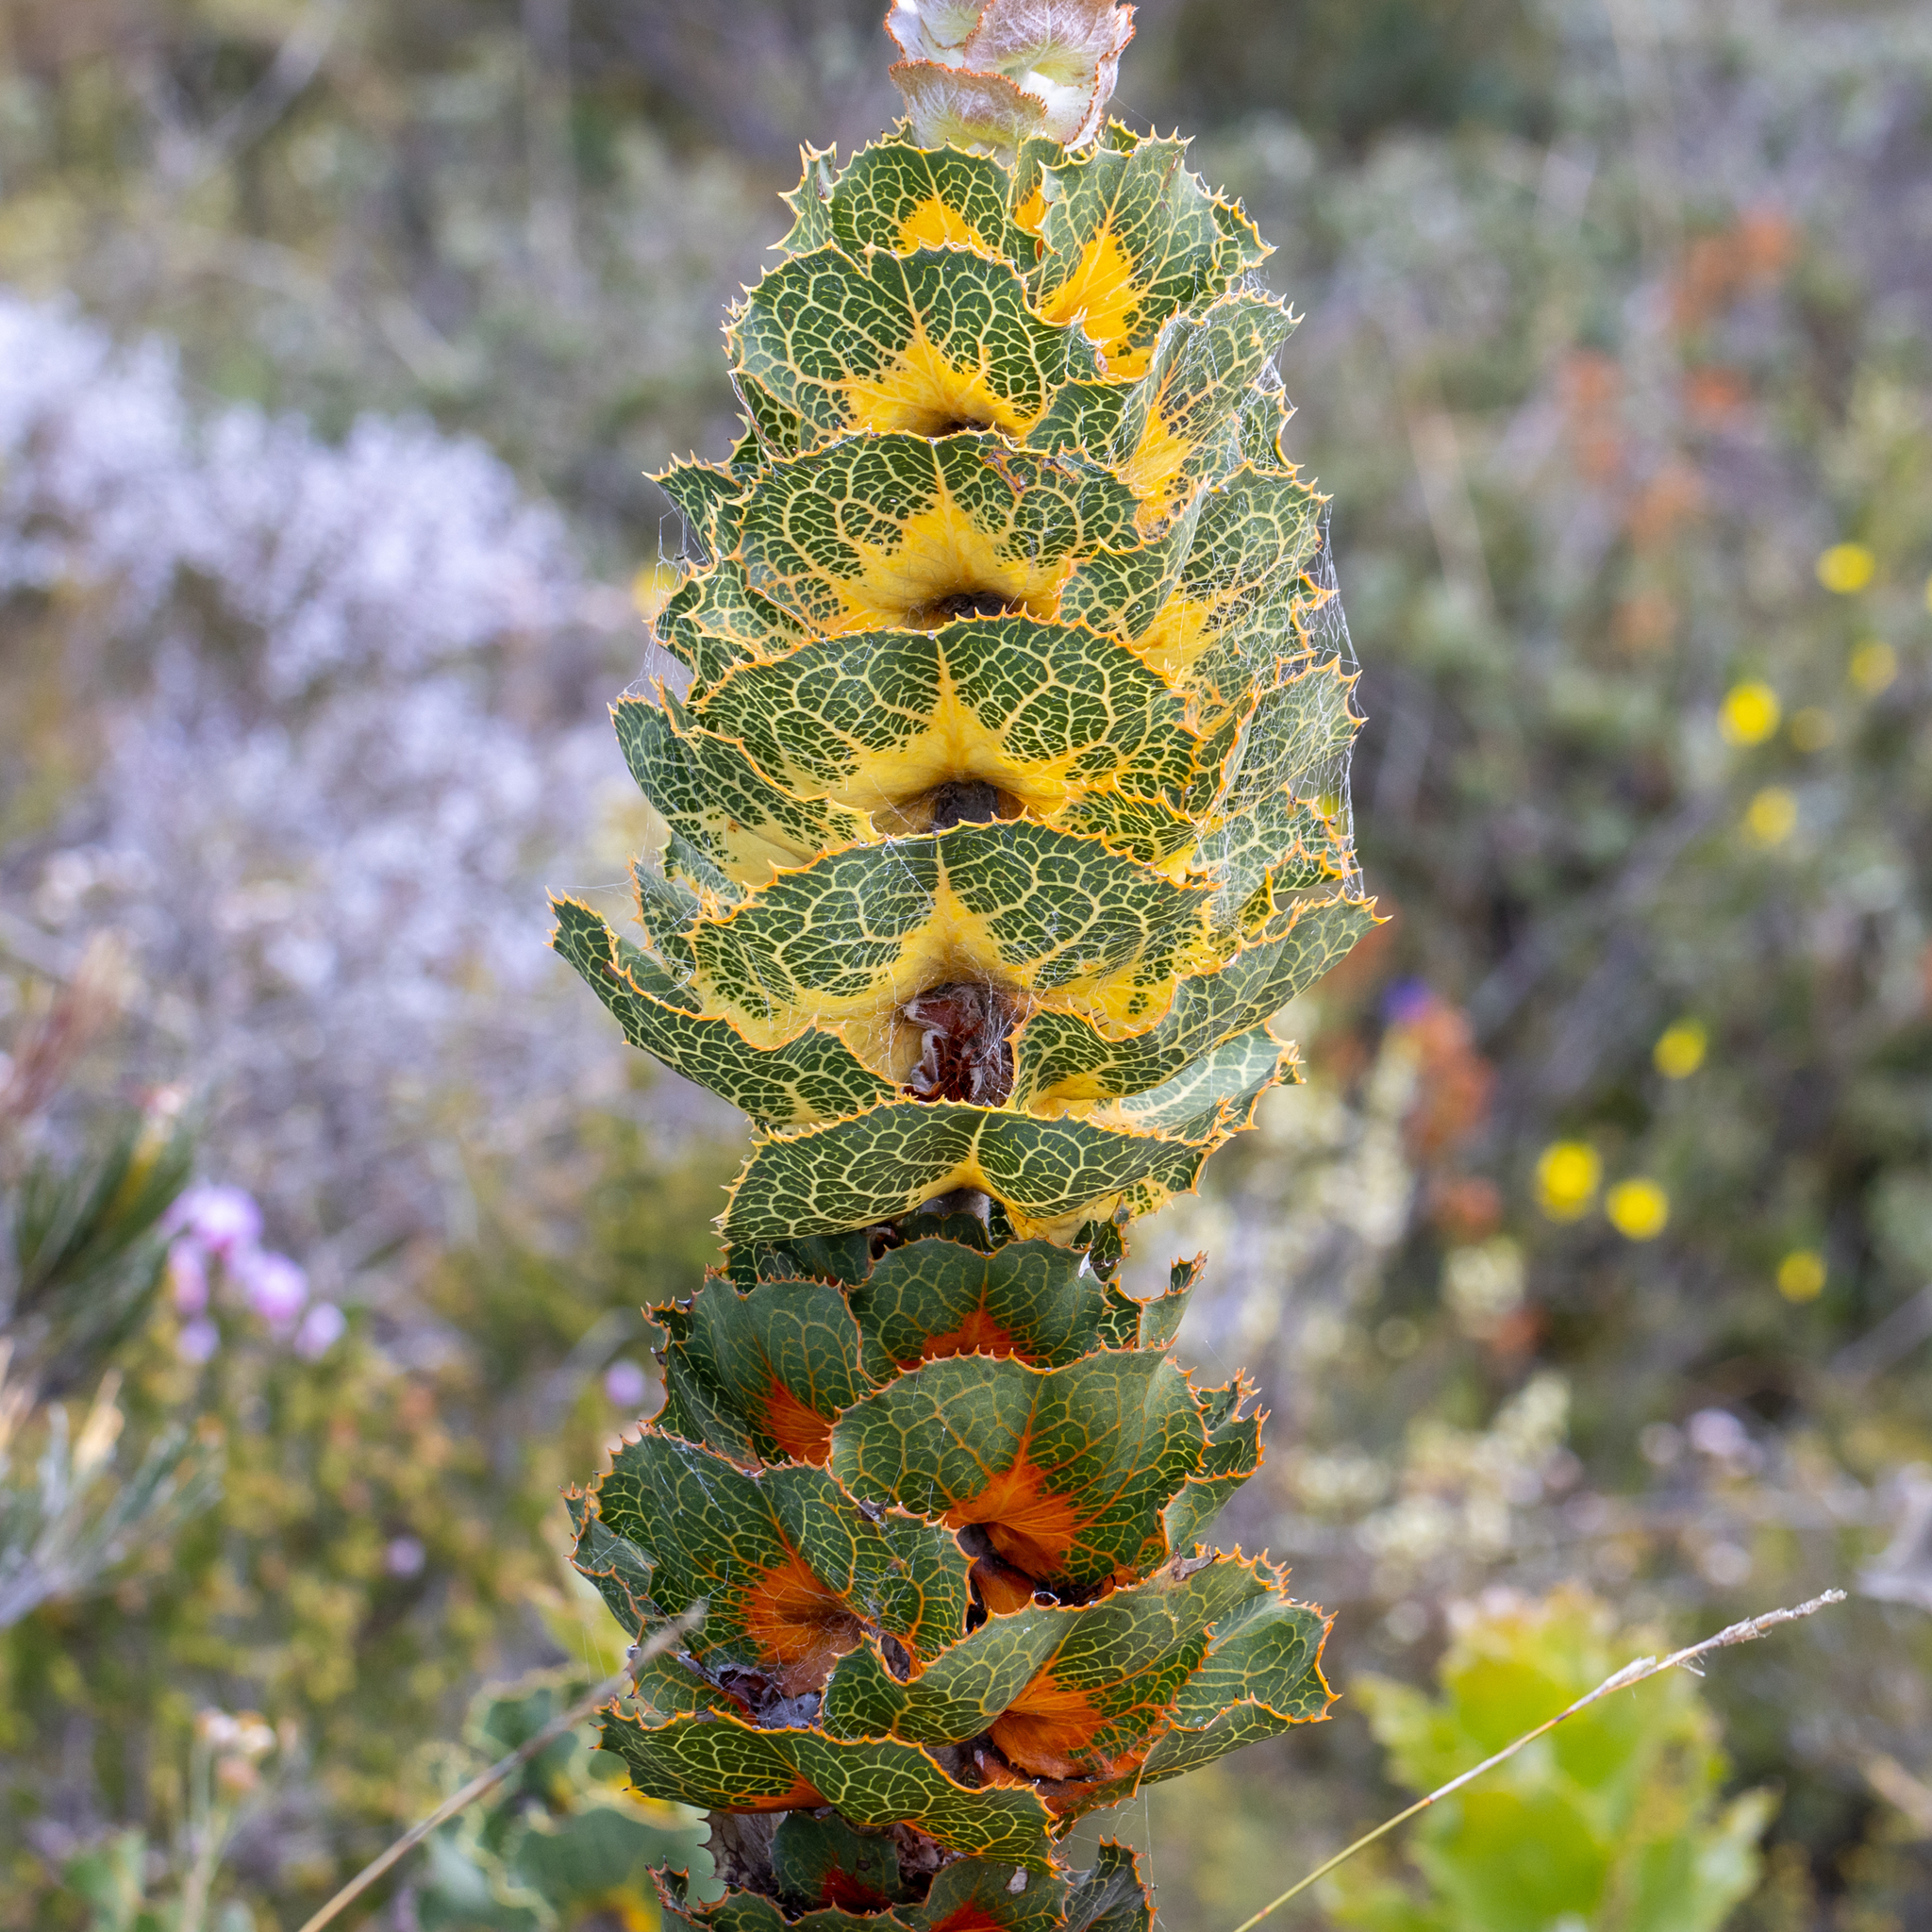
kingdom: Plantae
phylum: Tracheophyta
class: Magnoliopsida
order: Proteales
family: Proteaceae
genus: Hakea
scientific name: Hakea victoria
